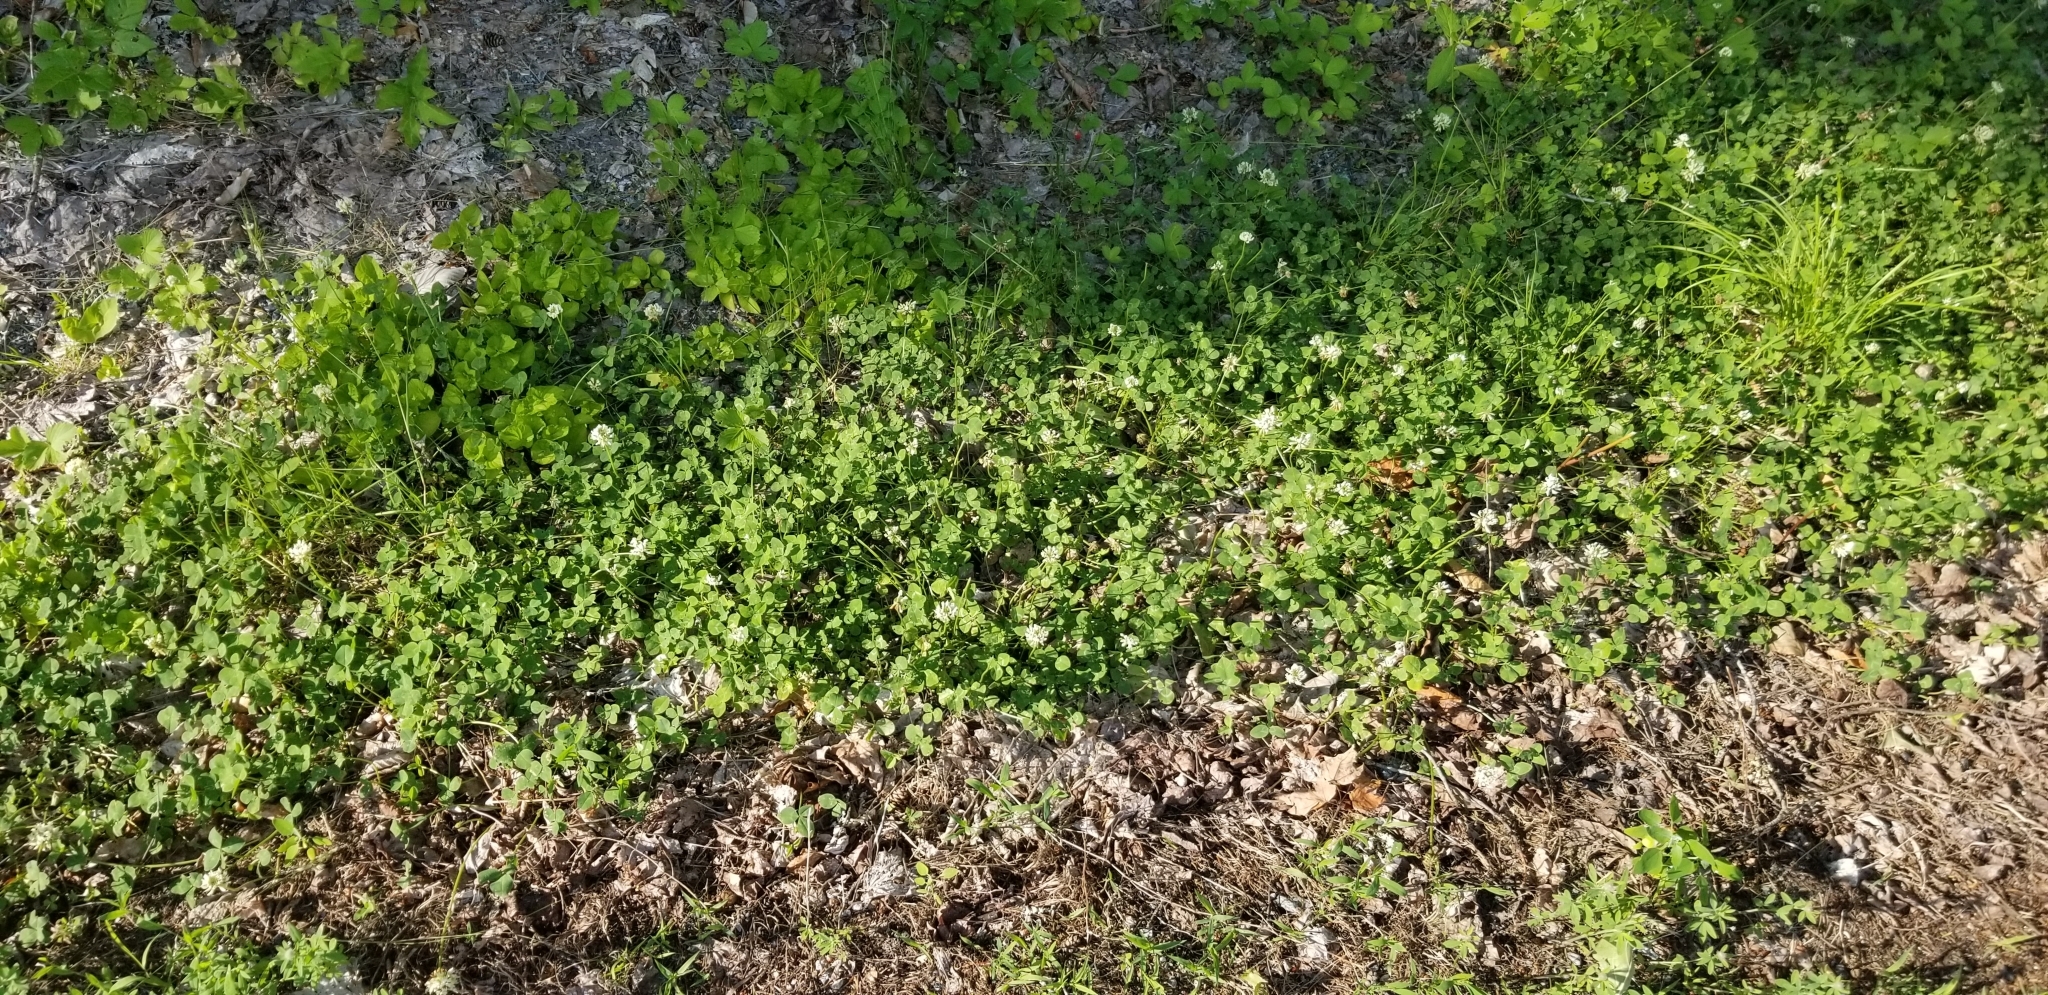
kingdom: Plantae
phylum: Tracheophyta
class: Magnoliopsida
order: Fabales
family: Fabaceae
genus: Trifolium
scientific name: Trifolium repens
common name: White clover
